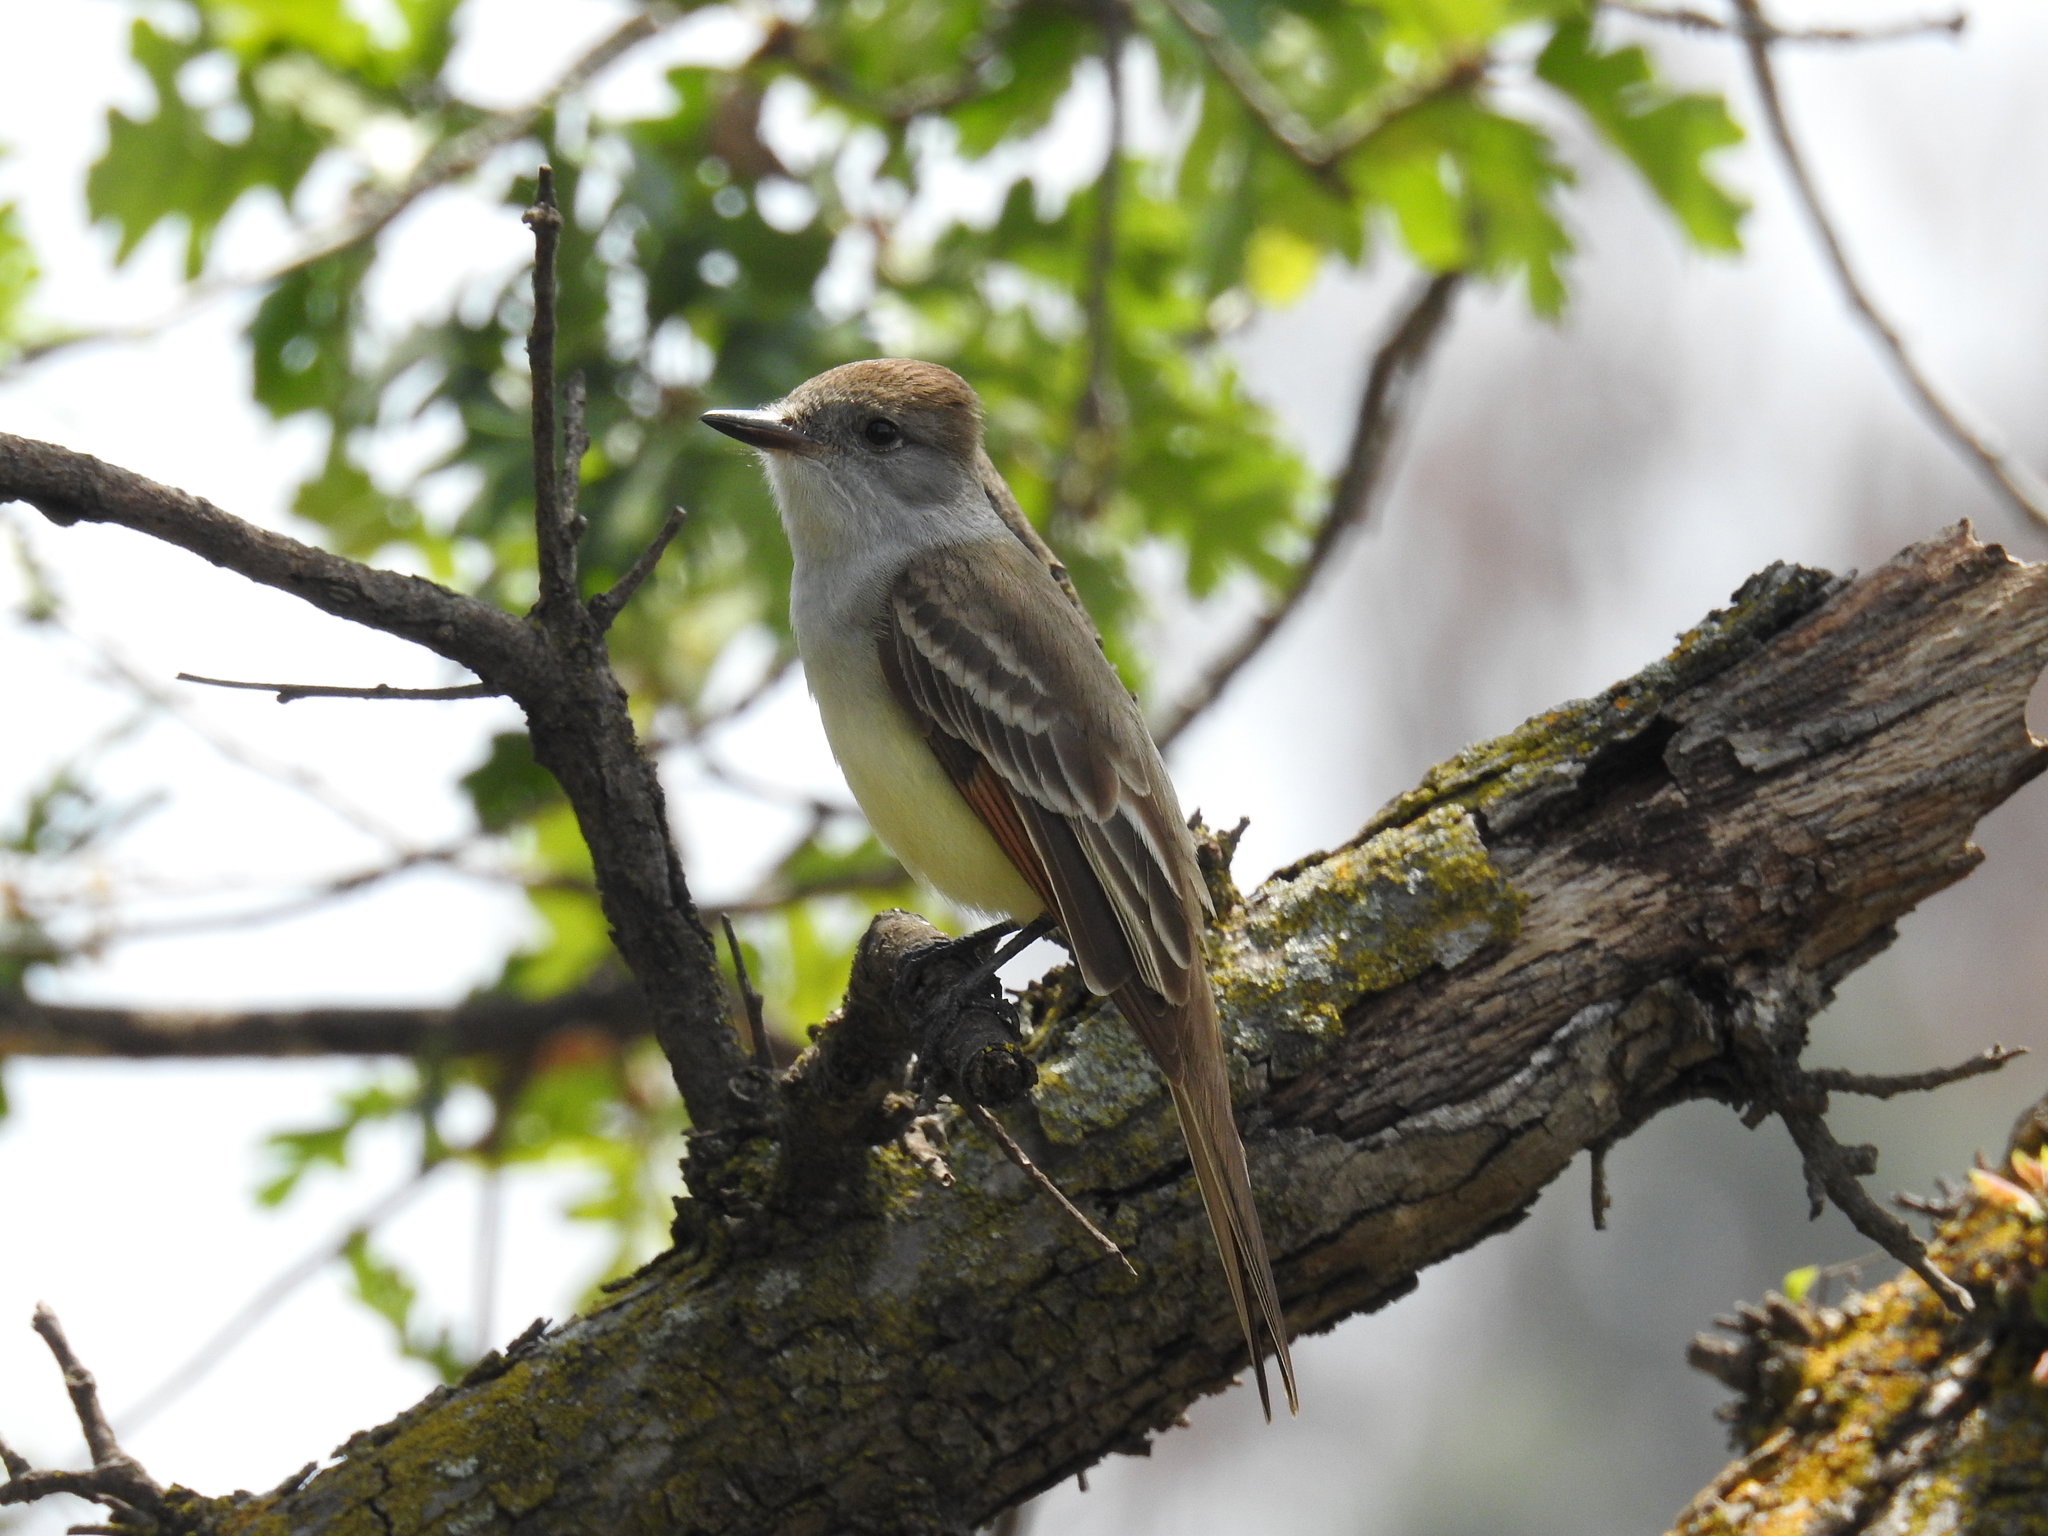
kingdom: Animalia
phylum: Chordata
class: Aves
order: Passeriformes
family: Tyrannidae
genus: Myiarchus
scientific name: Myiarchus cinerascens
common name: Ash-throated flycatcher
